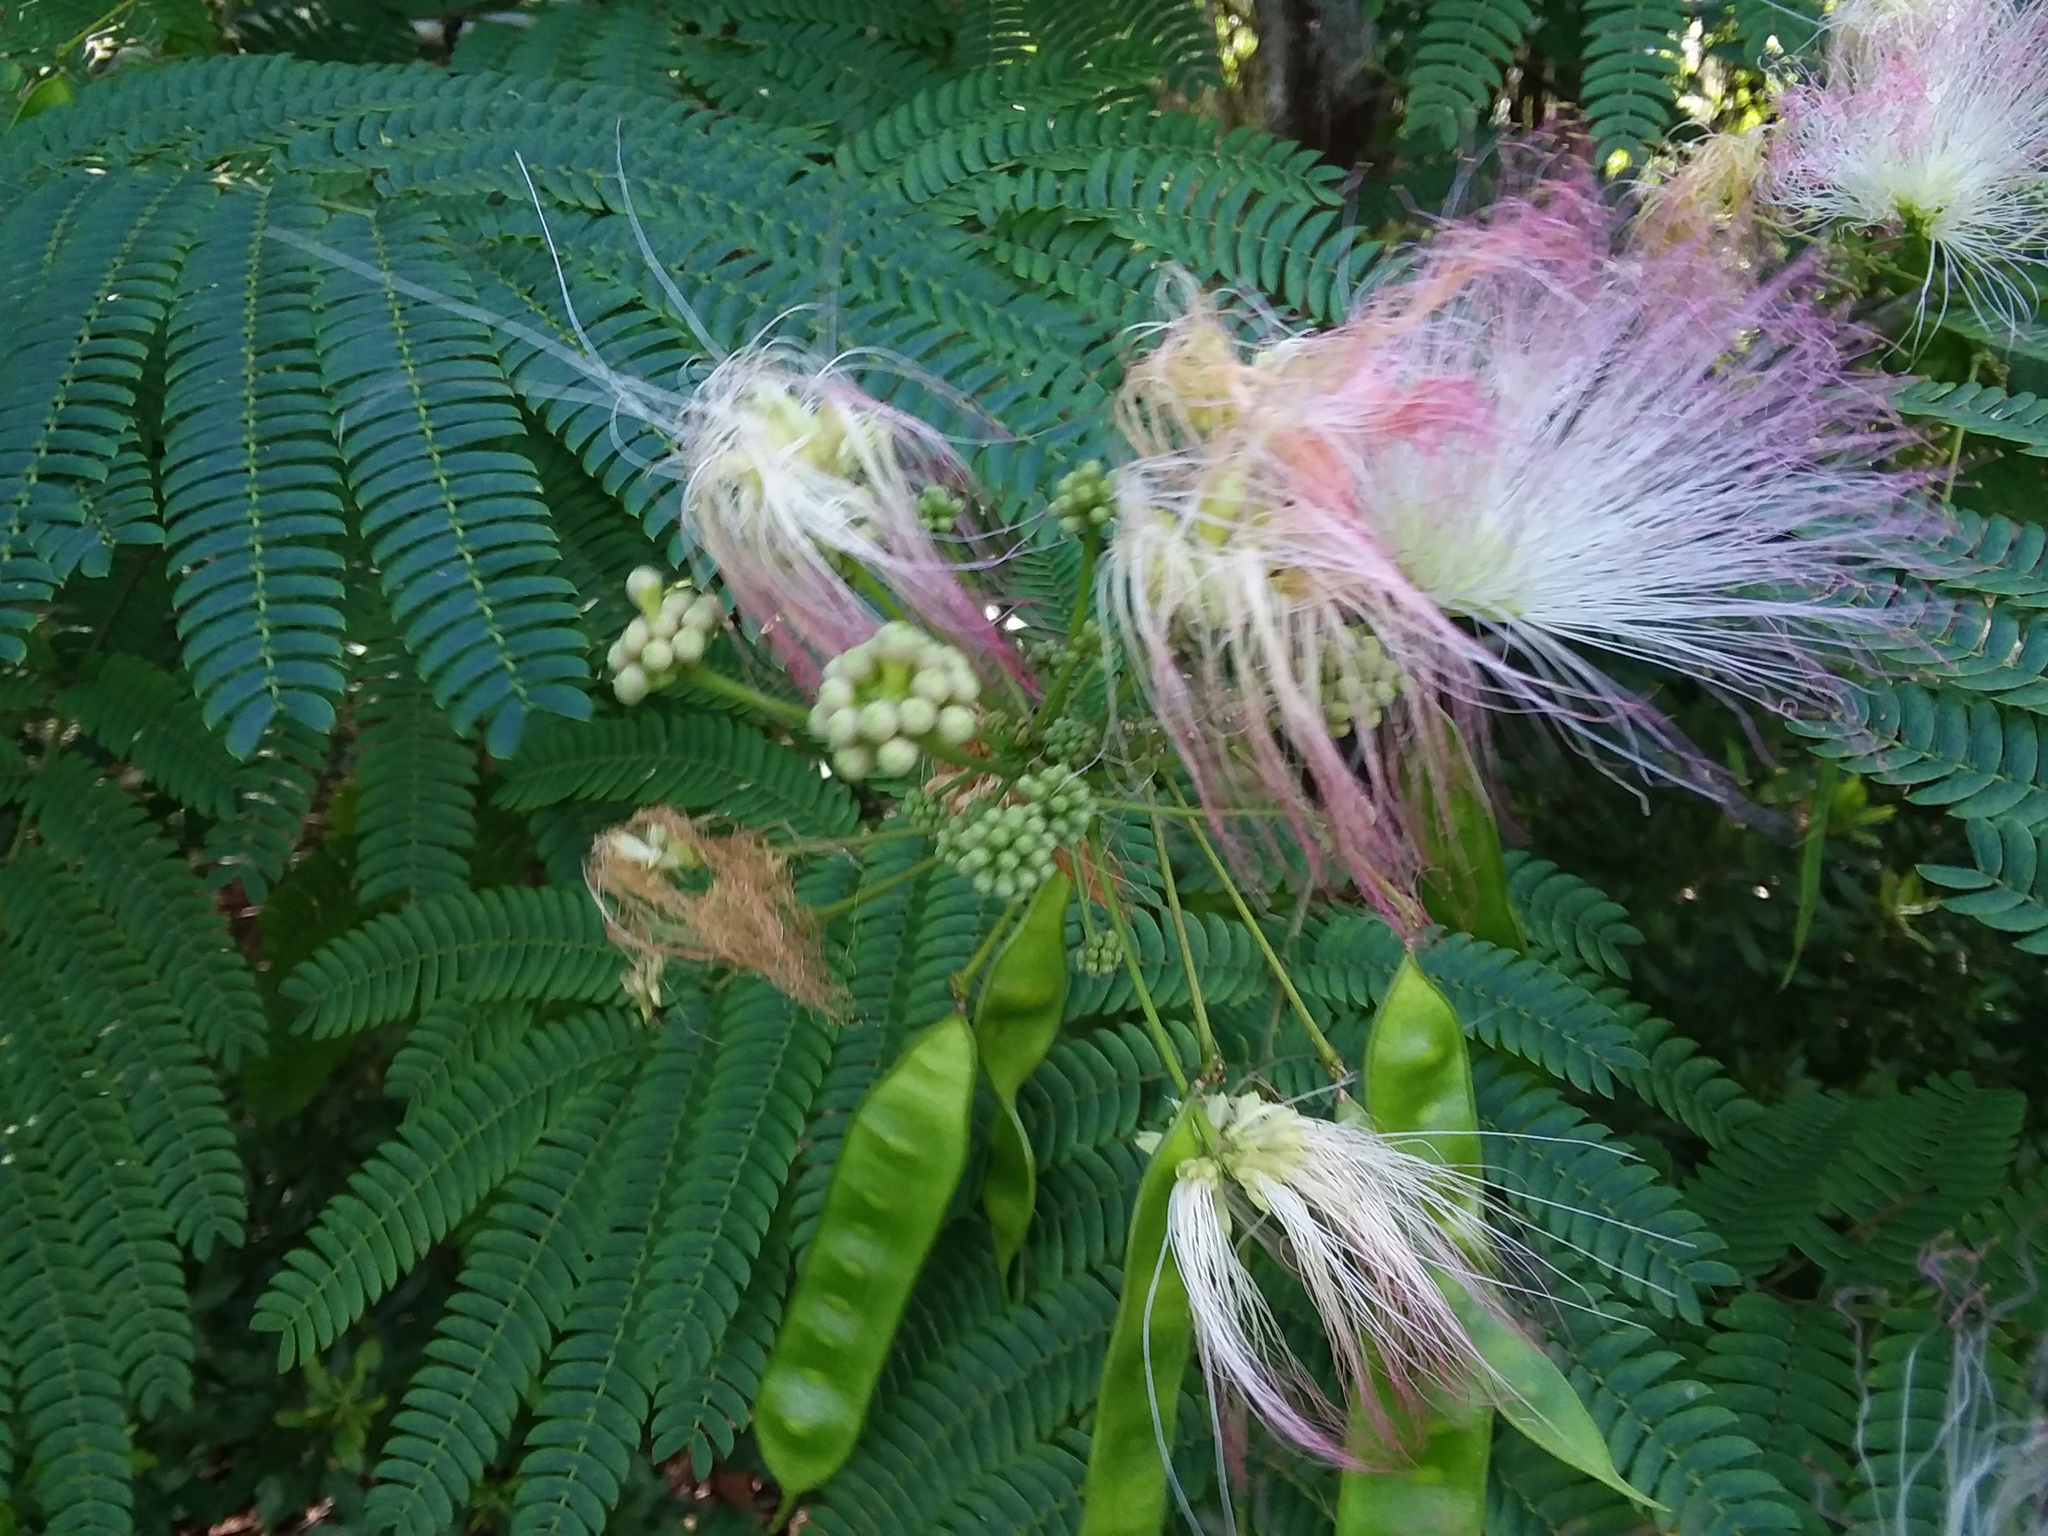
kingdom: Plantae
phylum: Tracheophyta
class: Magnoliopsida
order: Fabales
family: Fabaceae
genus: Albizia
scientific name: Albizia julibrissin
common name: Silktree
